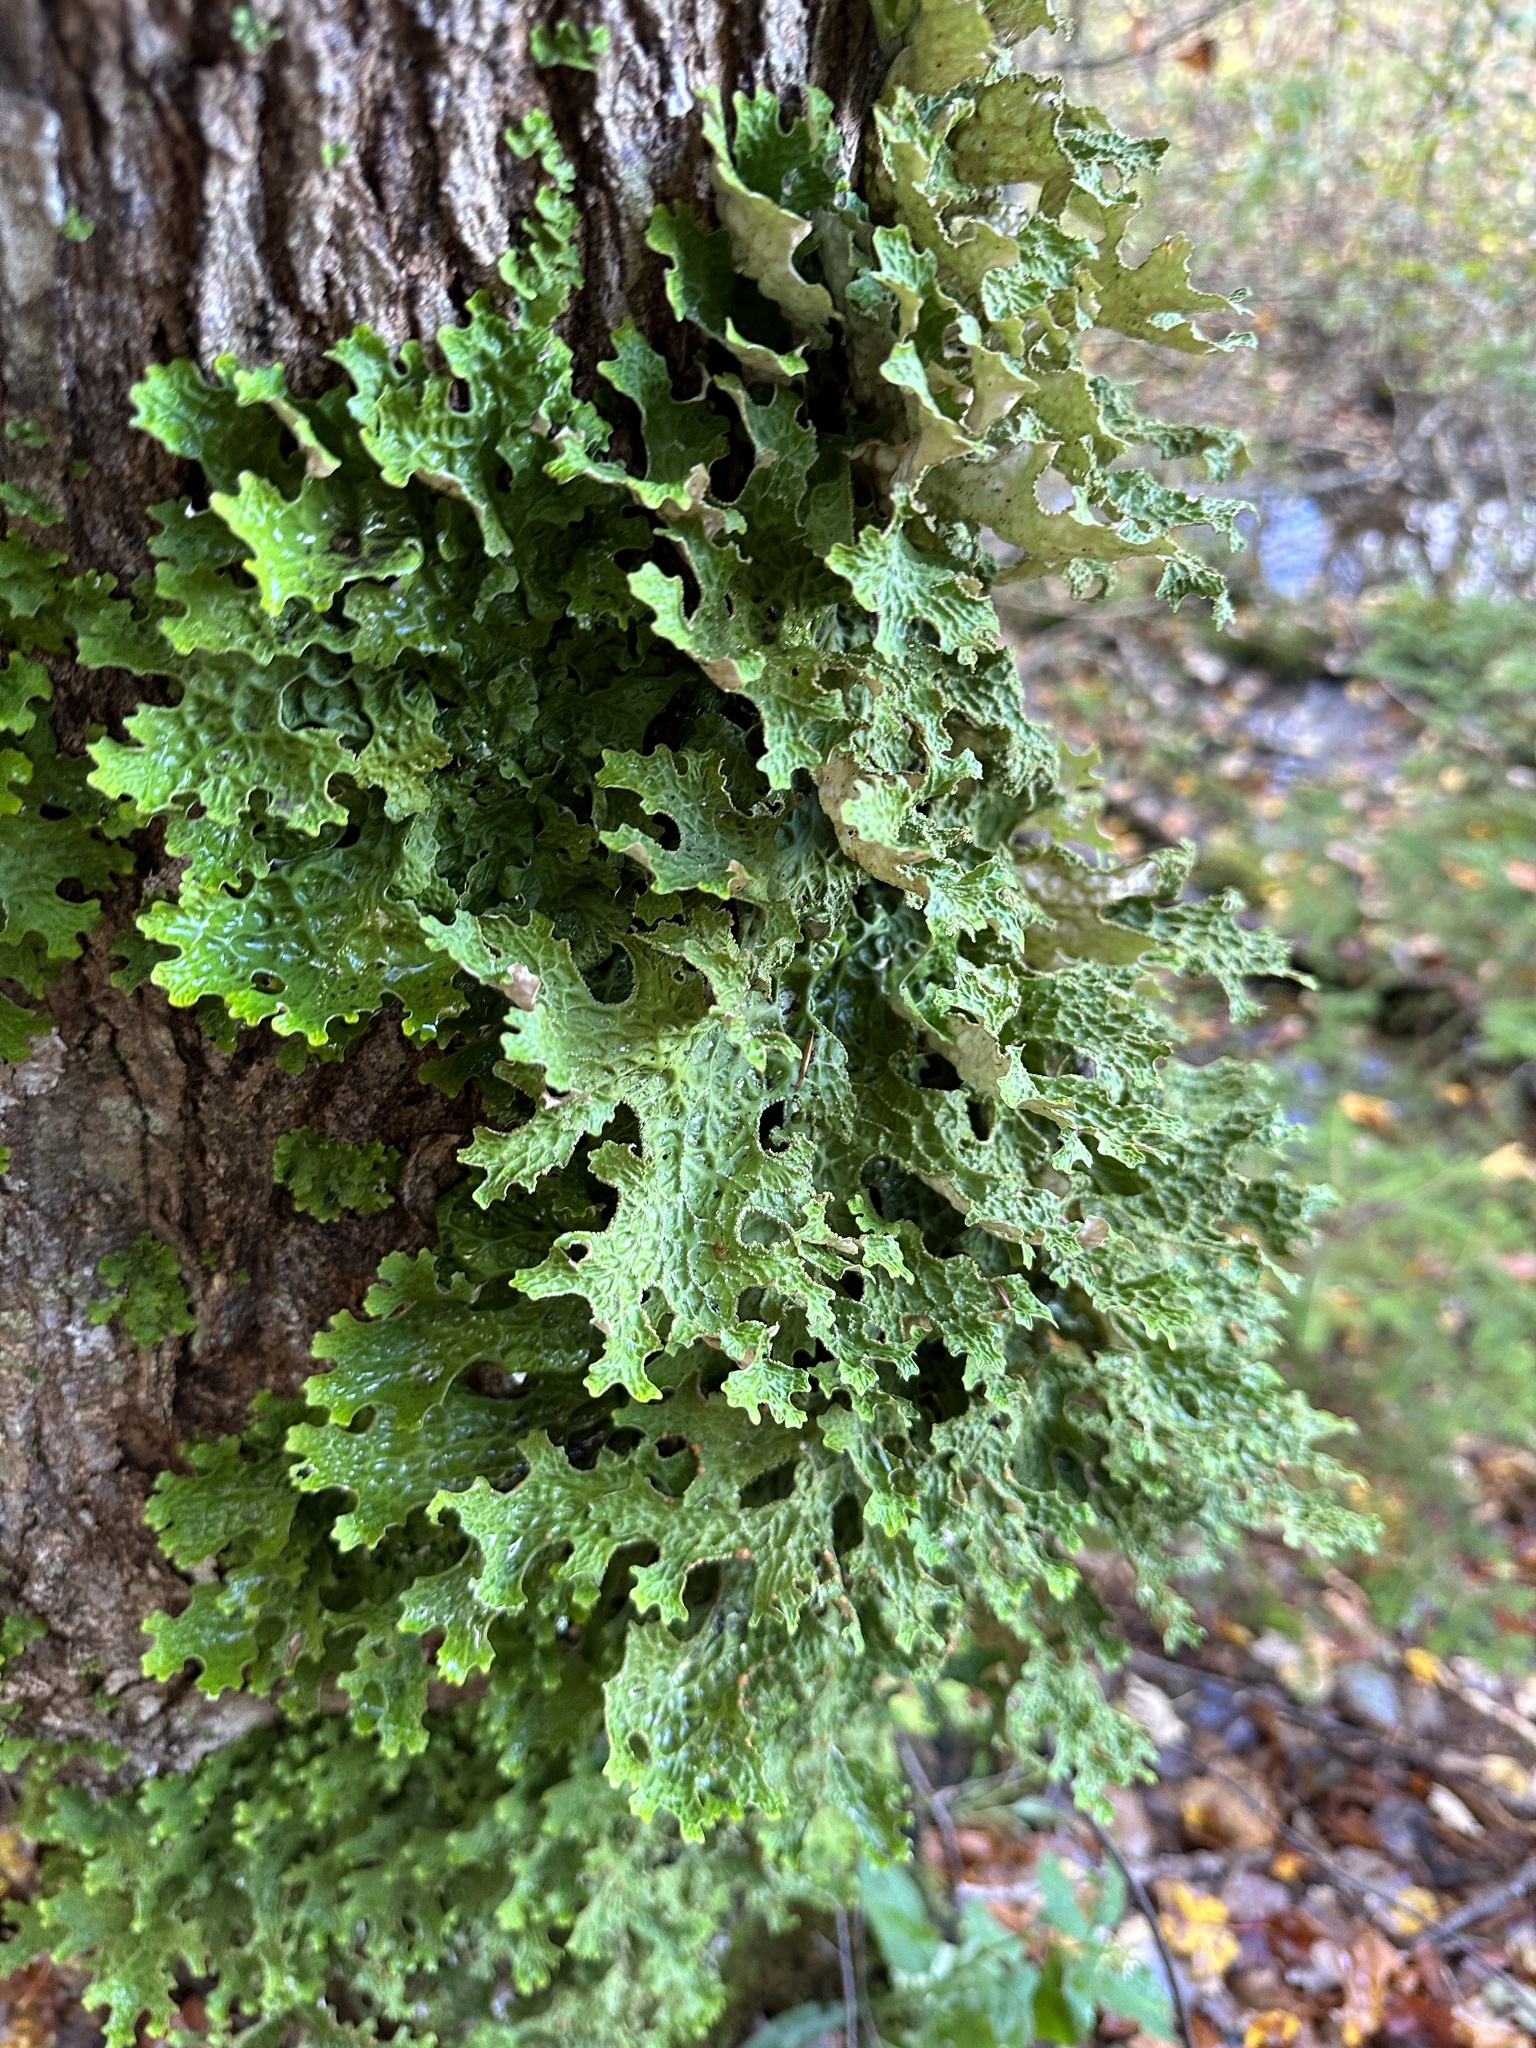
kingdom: Fungi
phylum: Ascomycota
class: Lecanoromycetes
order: Peltigerales
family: Lobariaceae
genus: Lobaria
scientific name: Lobaria pulmonaria
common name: Lungwort
